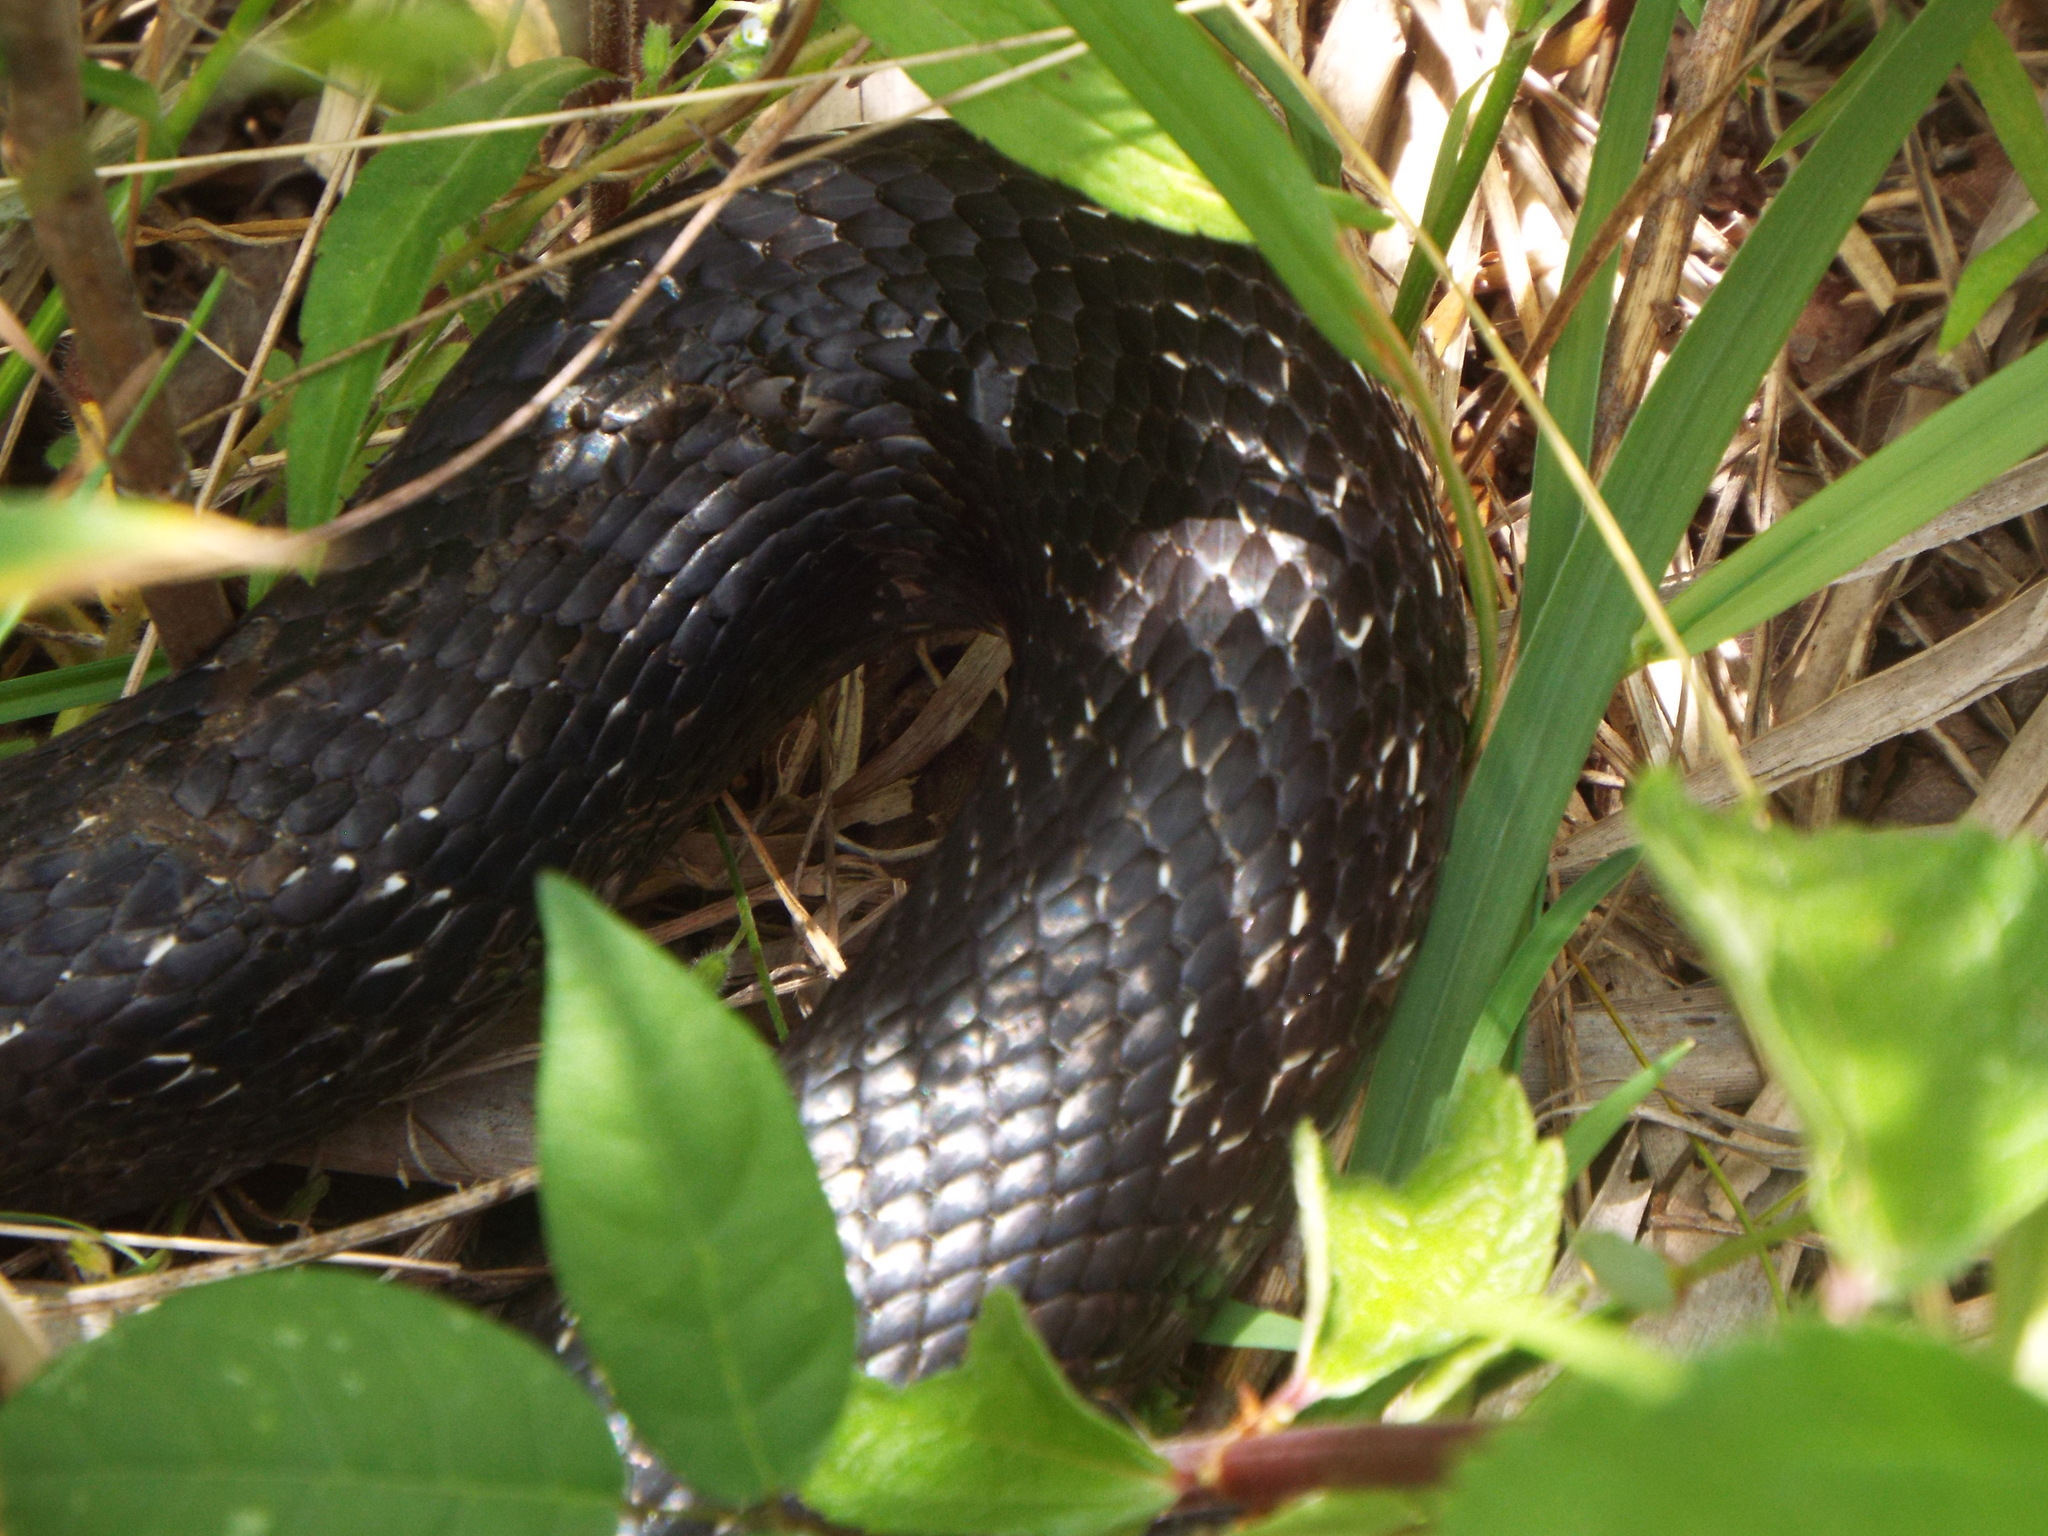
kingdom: Animalia
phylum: Chordata
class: Squamata
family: Colubridae
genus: Pantherophis
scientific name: Pantherophis
